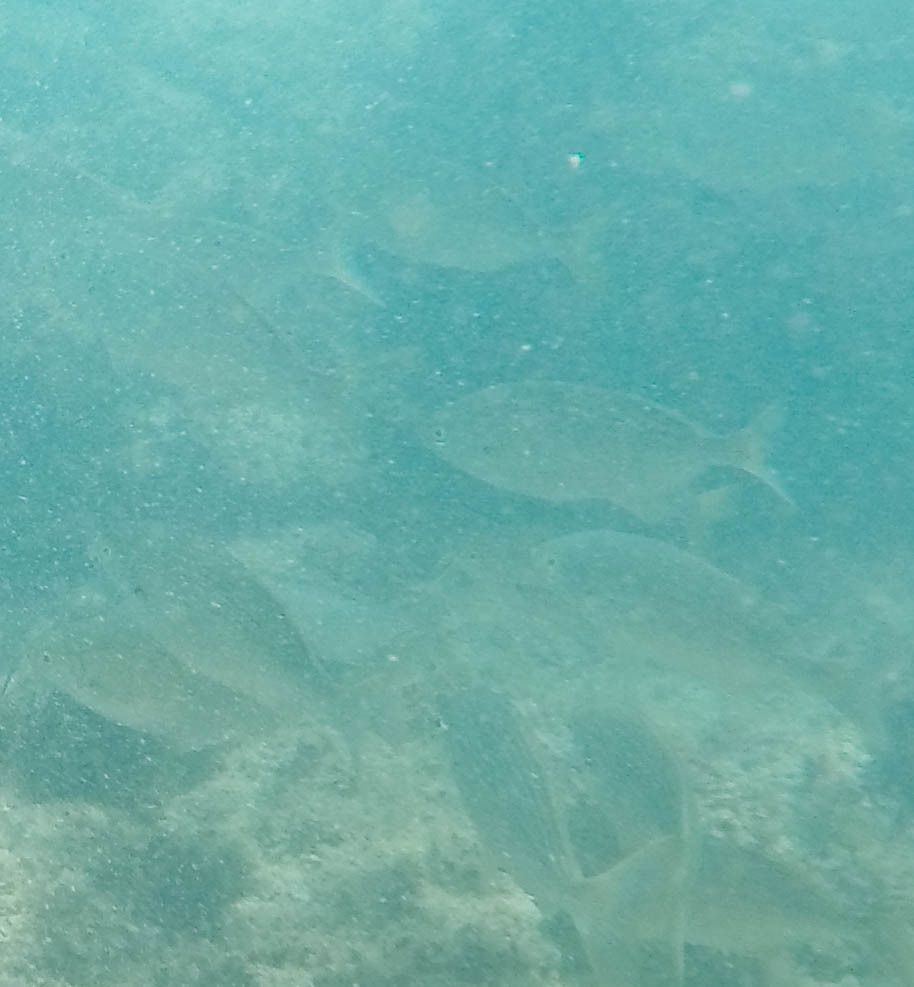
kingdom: Animalia
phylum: Chordata
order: Perciformes
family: Sparidae
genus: Sarpa
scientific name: Sarpa salpa
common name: Salema
